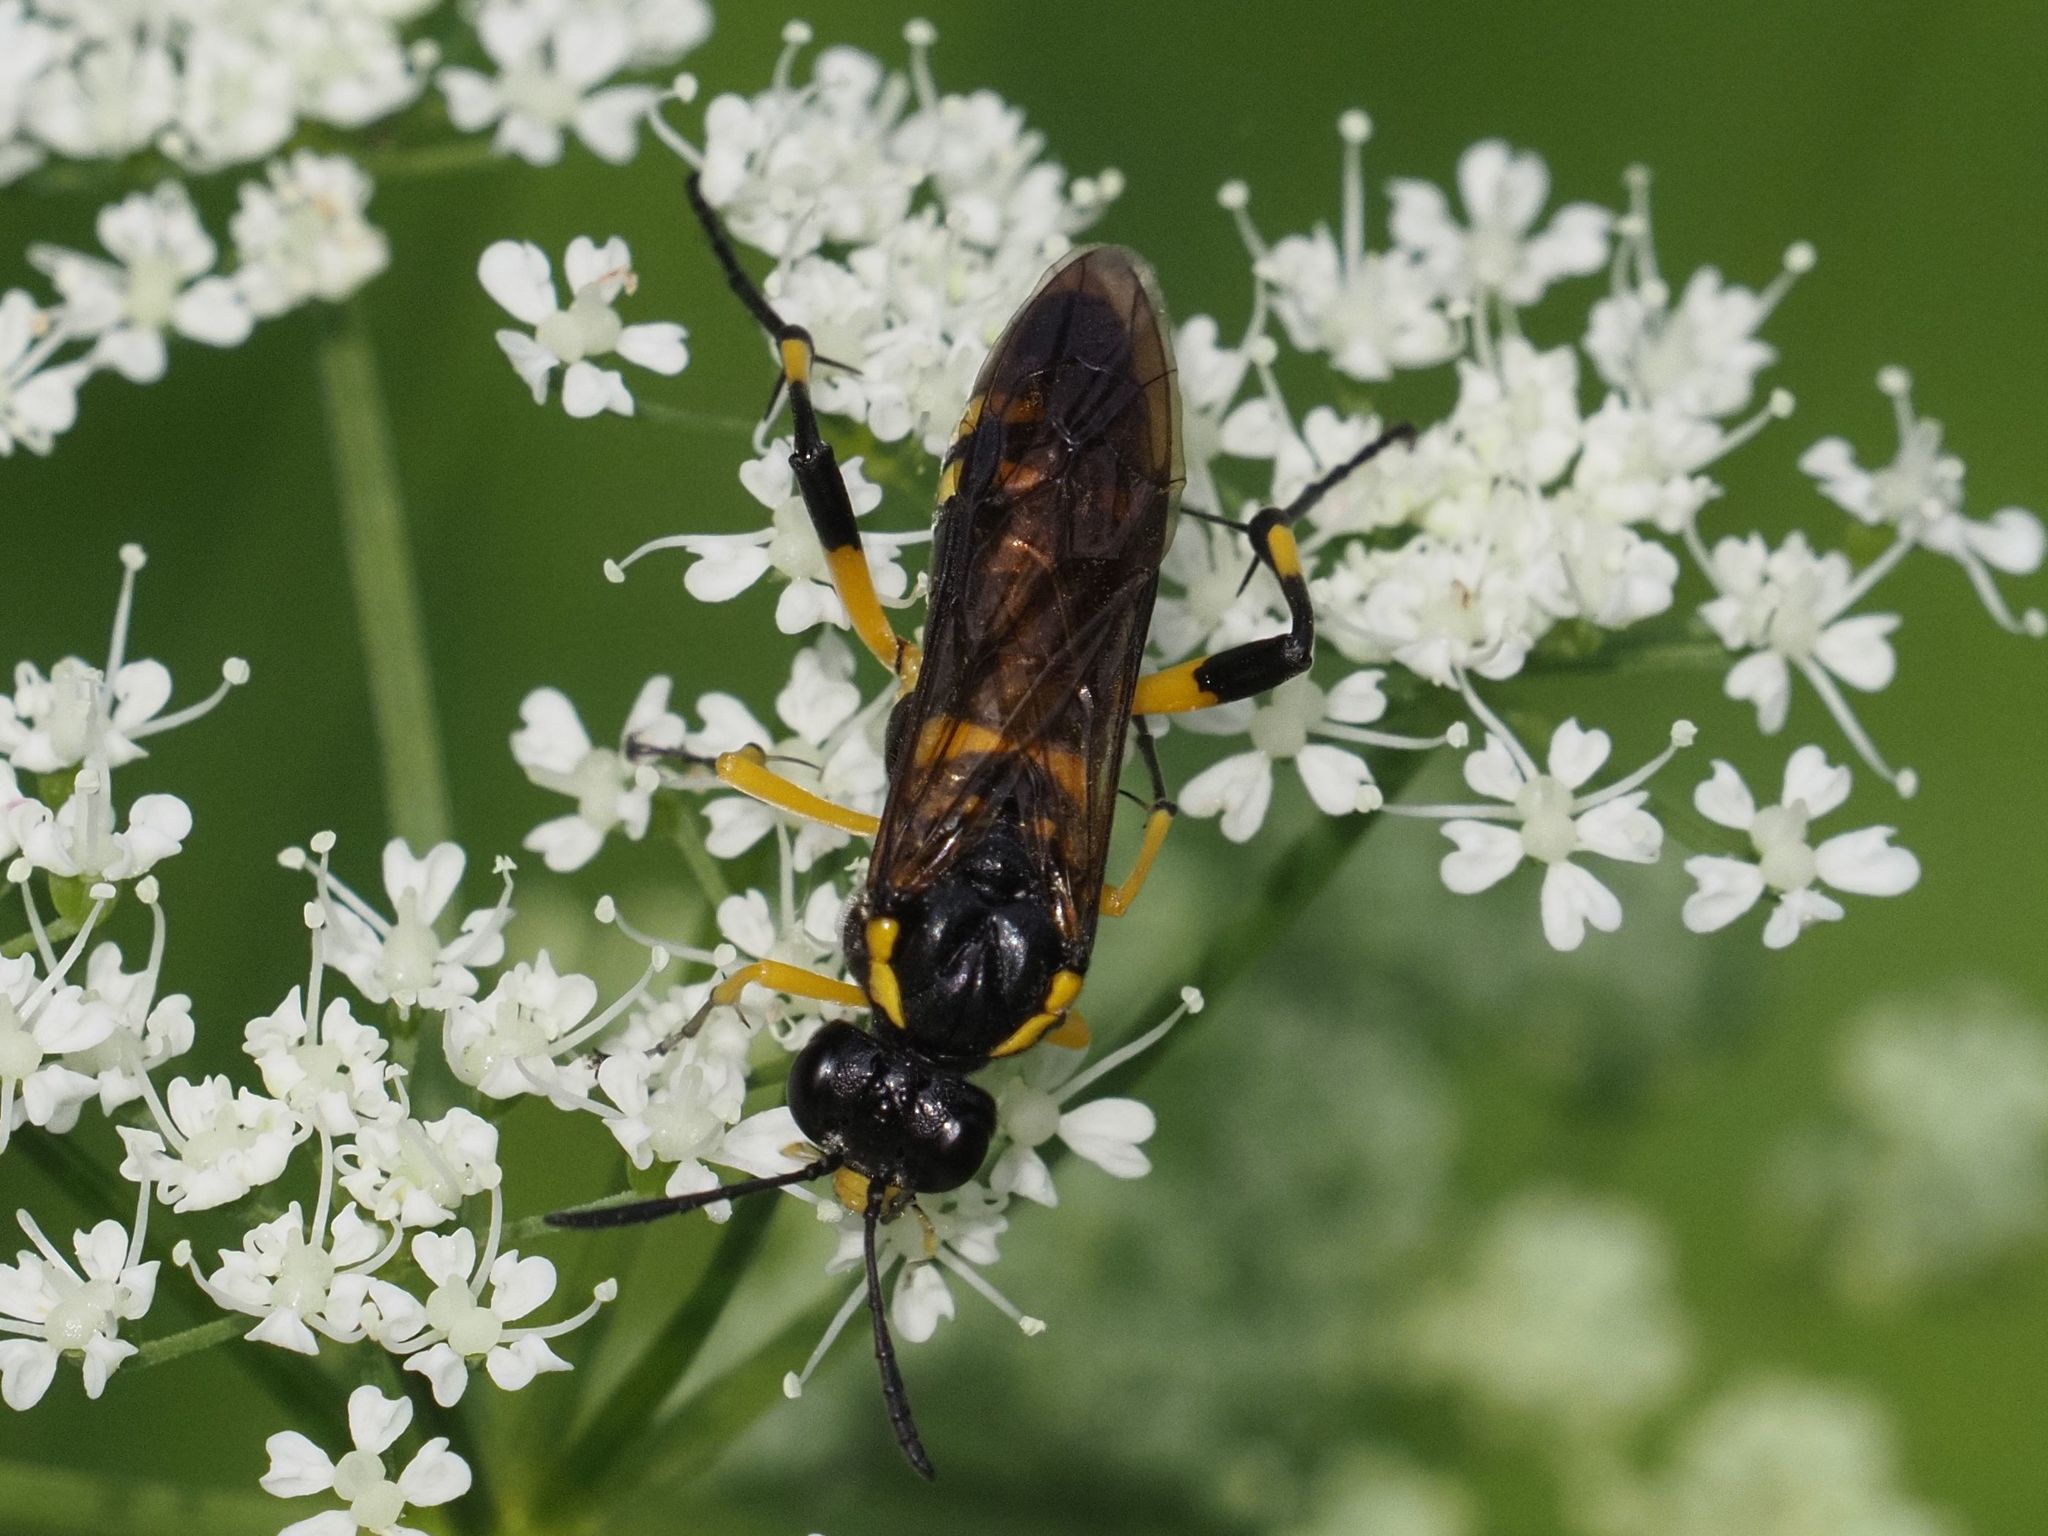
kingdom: Animalia
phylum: Arthropoda
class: Insecta
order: Hymenoptera
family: Tenthredinidae
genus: Macrophya
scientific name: Macrophya montana
